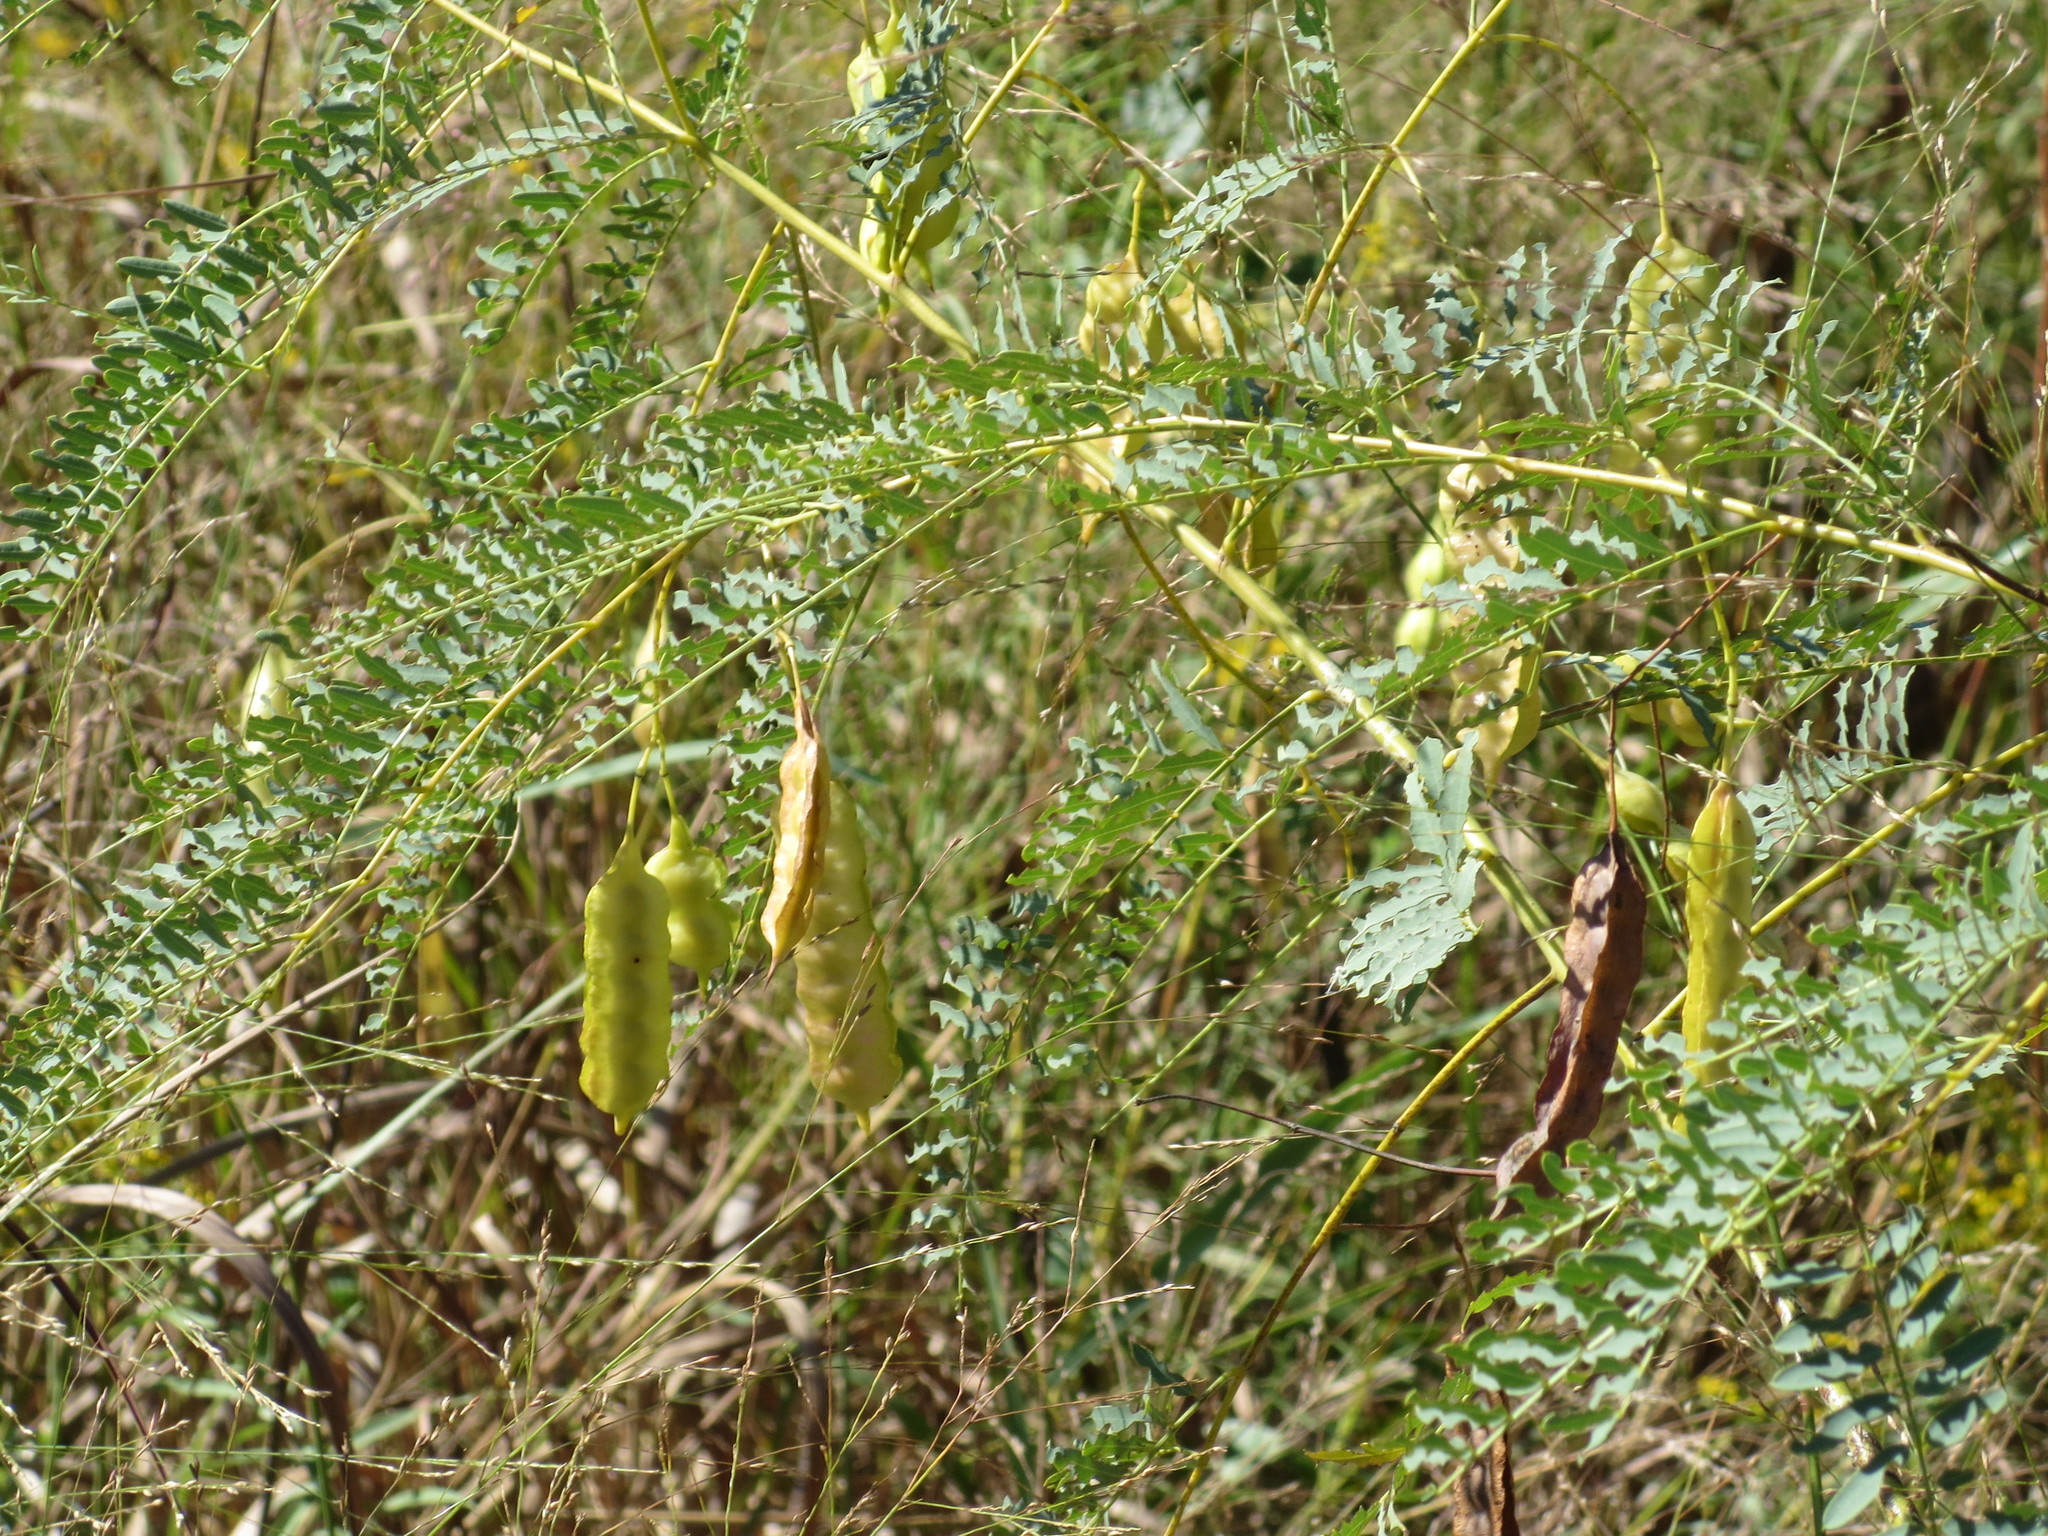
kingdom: Plantae
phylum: Tracheophyta
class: Magnoliopsida
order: Fabales
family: Fabaceae
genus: Sesbania
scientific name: Sesbania drummondii
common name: Poison-bean
